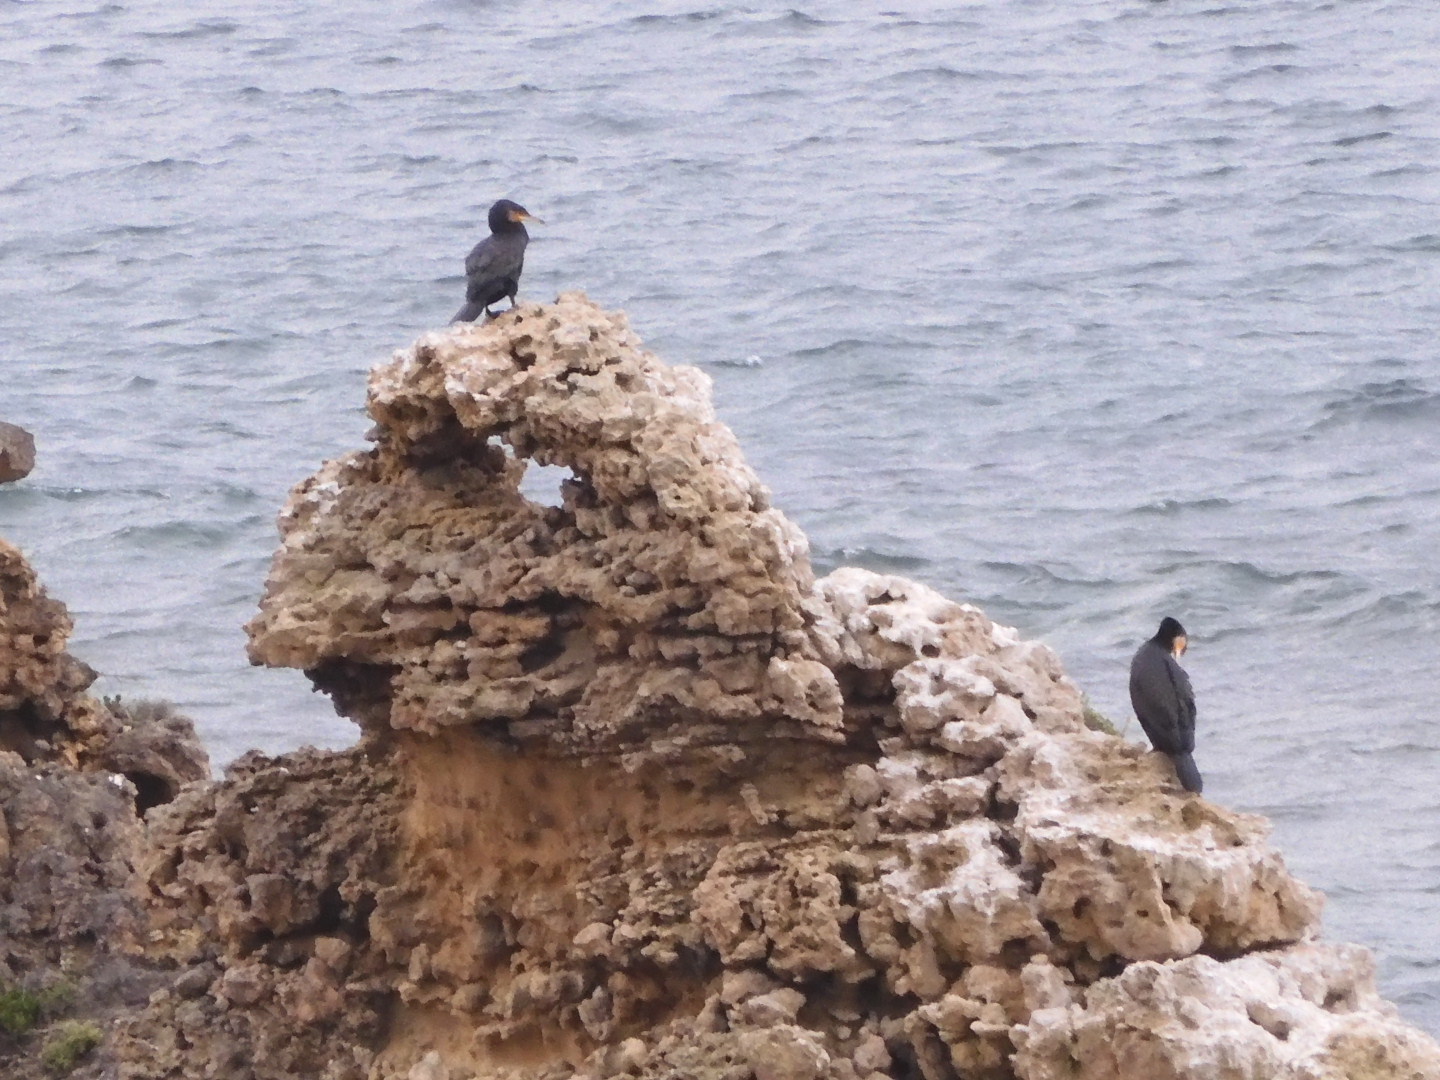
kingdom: Animalia
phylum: Chordata
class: Aves
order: Suliformes
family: Phalacrocoracidae
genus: Phalacrocorax
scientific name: Phalacrocorax carbo
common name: Great cormorant
